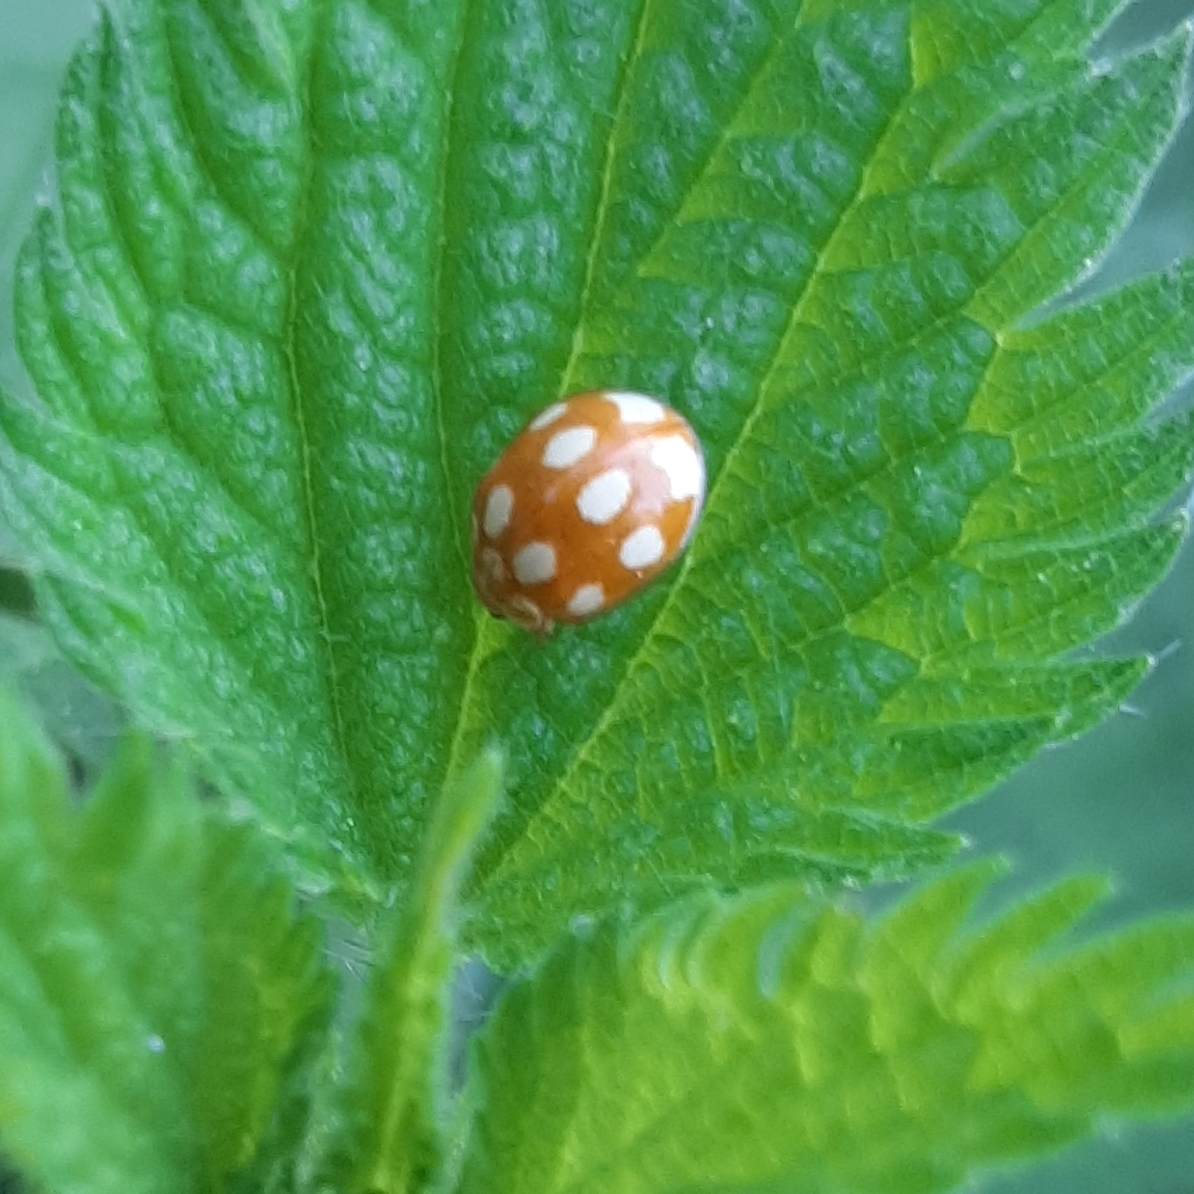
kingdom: Animalia
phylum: Arthropoda
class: Insecta
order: Coleoptera
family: Coccinellidae
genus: Calvia
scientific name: Calvia decemguttata
